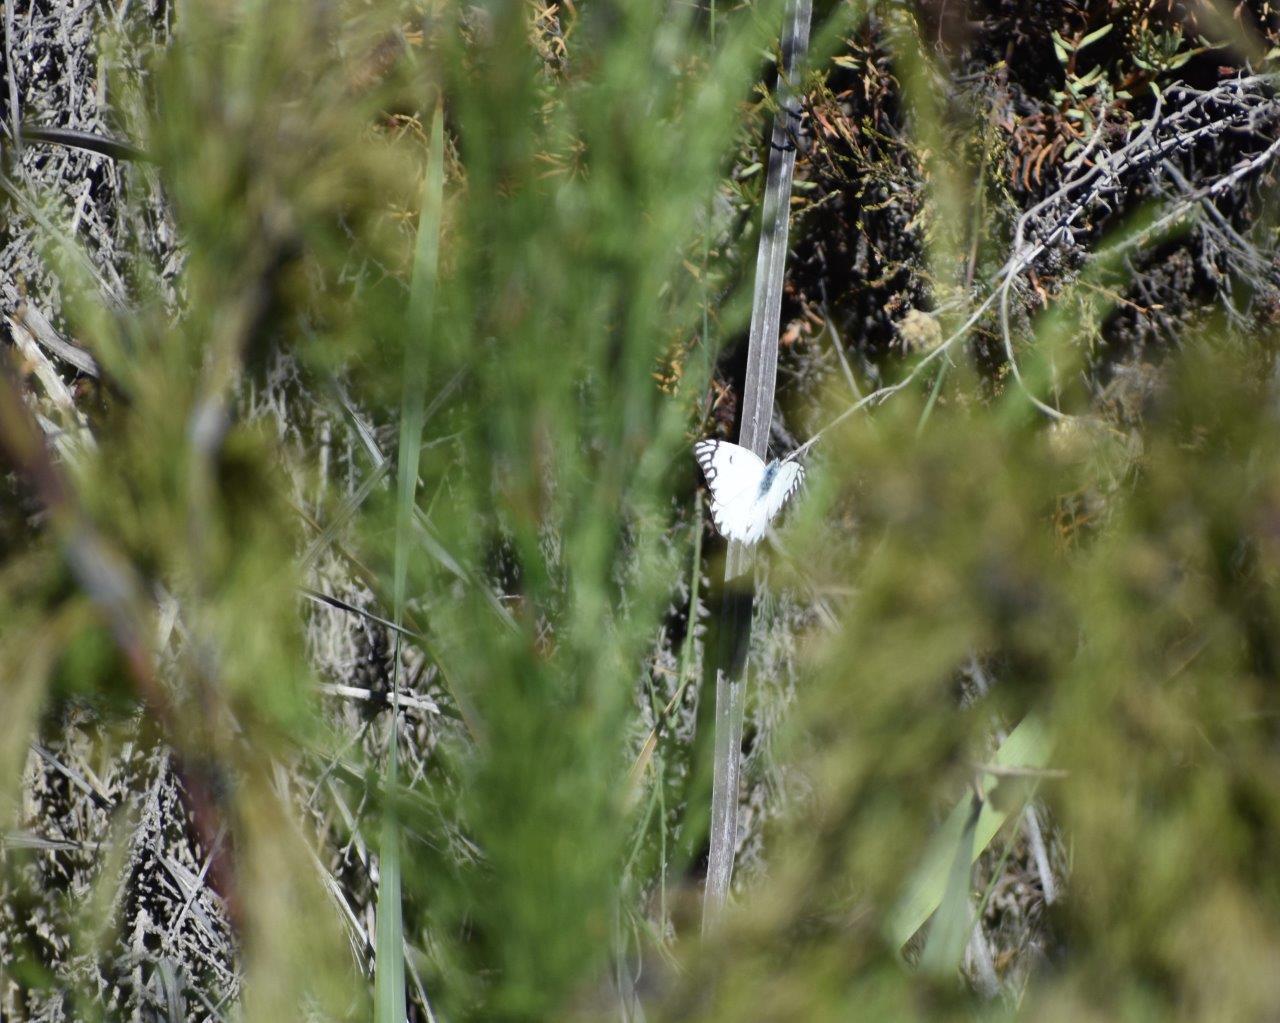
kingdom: Animalia
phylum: Arthropoda
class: Insecta
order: Lepidoptera
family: Pieridae
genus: Belenois
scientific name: Belenois aurota
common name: Brown-veined white
